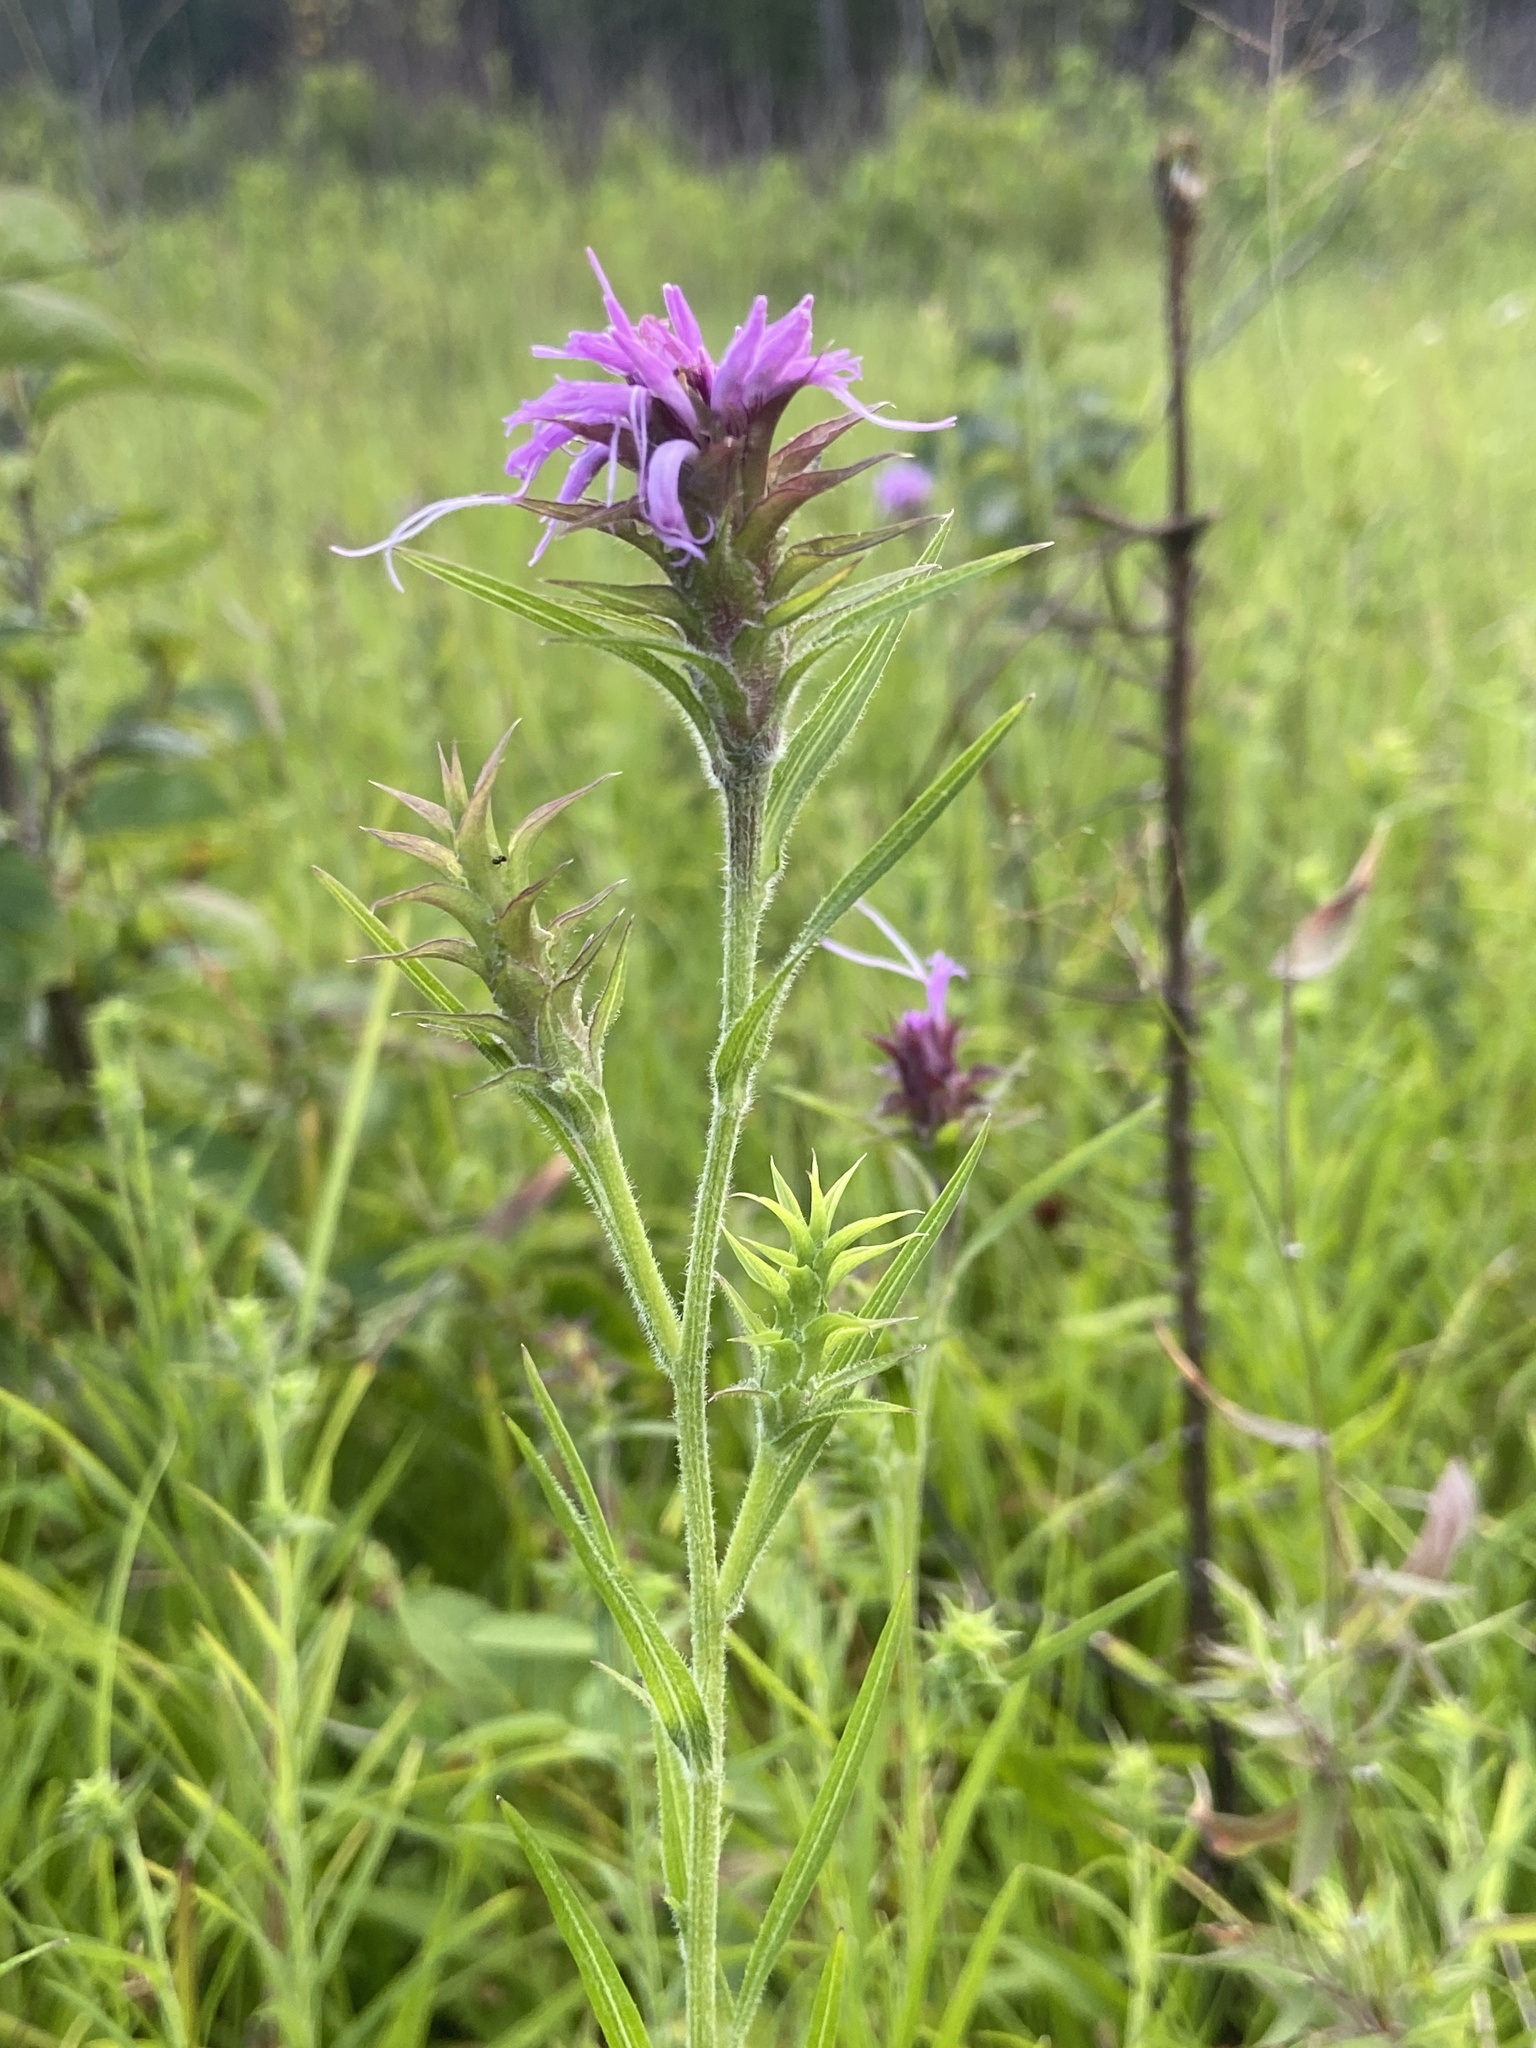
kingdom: Plantae
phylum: Tracheophyta
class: Magnoliopsida
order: Asterales
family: Asteraceae
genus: Liatris
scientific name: Liatris squarrosa
